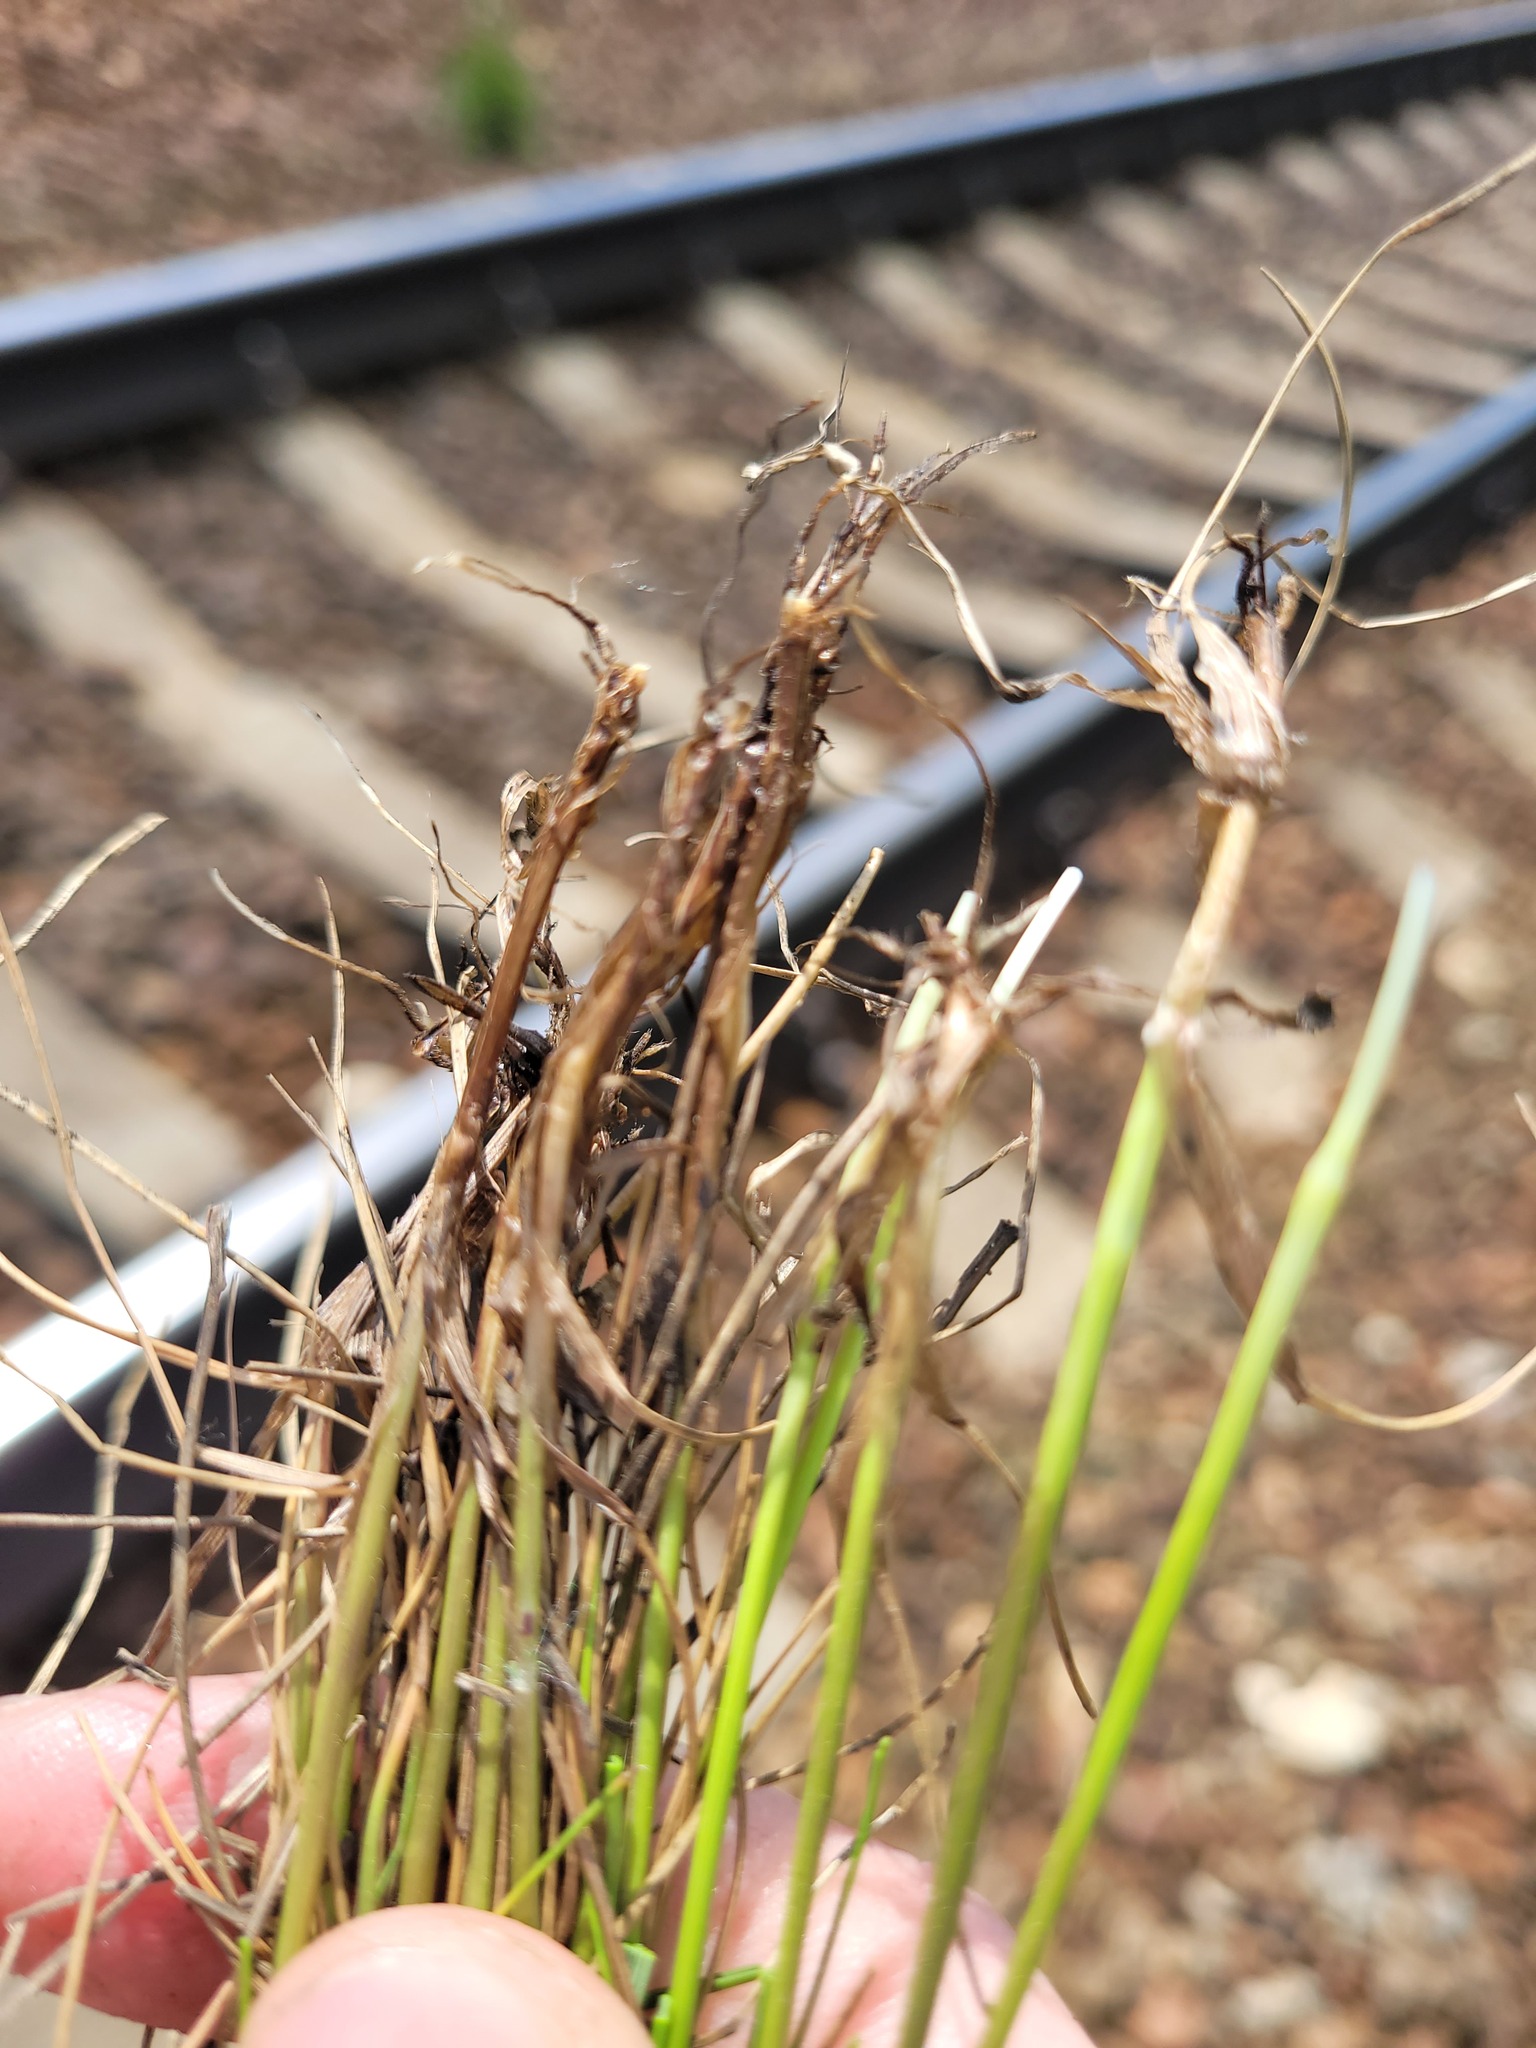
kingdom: Plantae
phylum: Tracheophyta
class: Liliopsida
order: Poales
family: Poaceae
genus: Festuca
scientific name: Festuca rubra
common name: Red fescue
